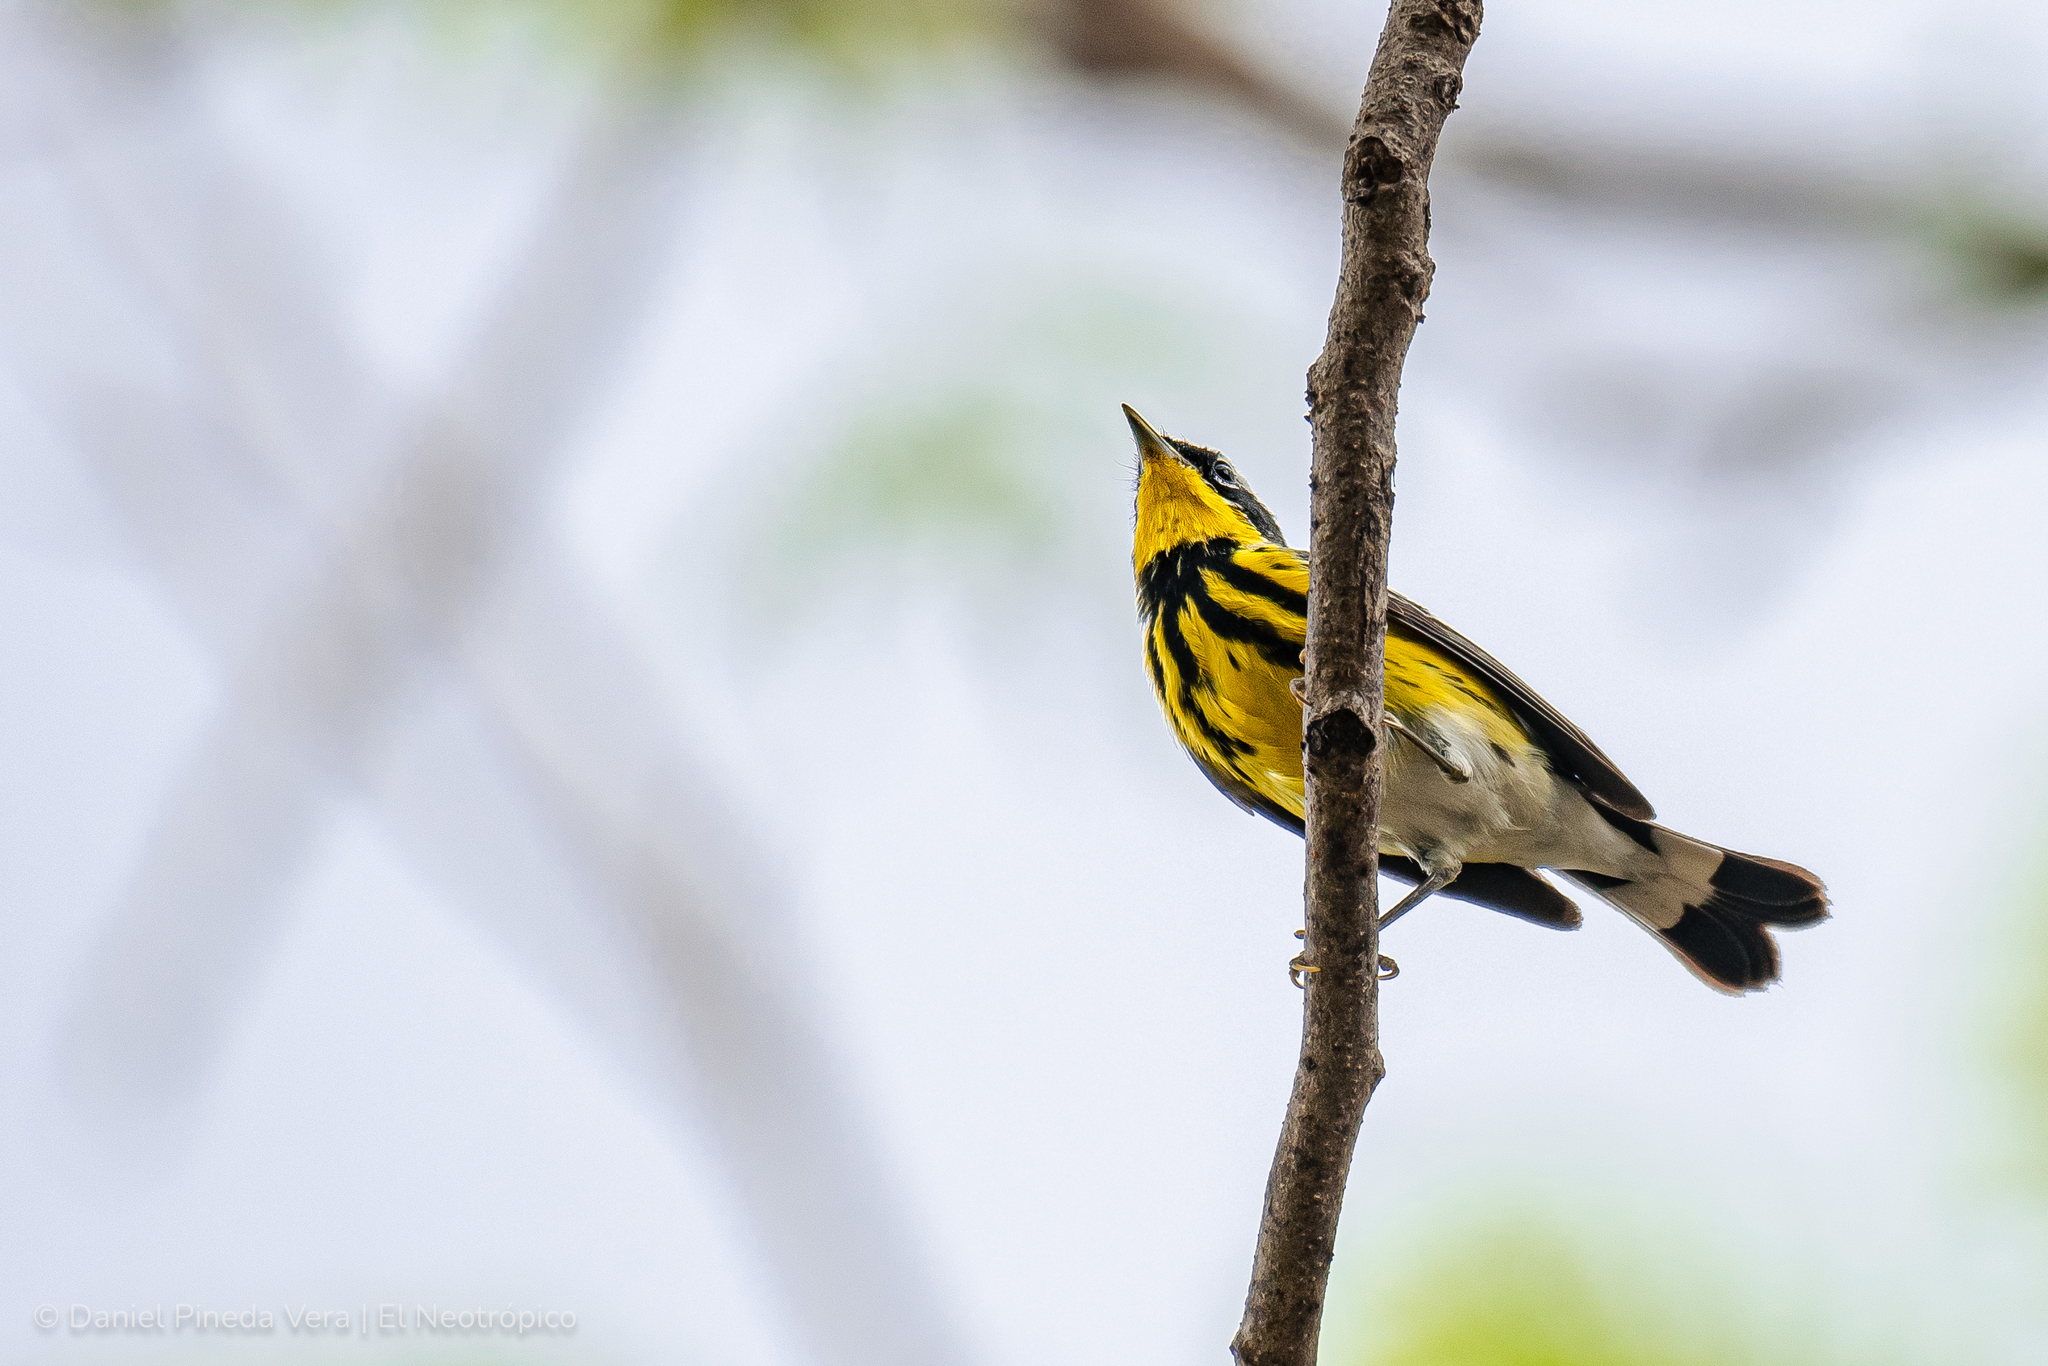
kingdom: Animalia
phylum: Chordata
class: Aves
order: Passeriformes
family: Parulidae
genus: Setophaga
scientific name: Setophaga magnolia
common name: Magnolia warbler
